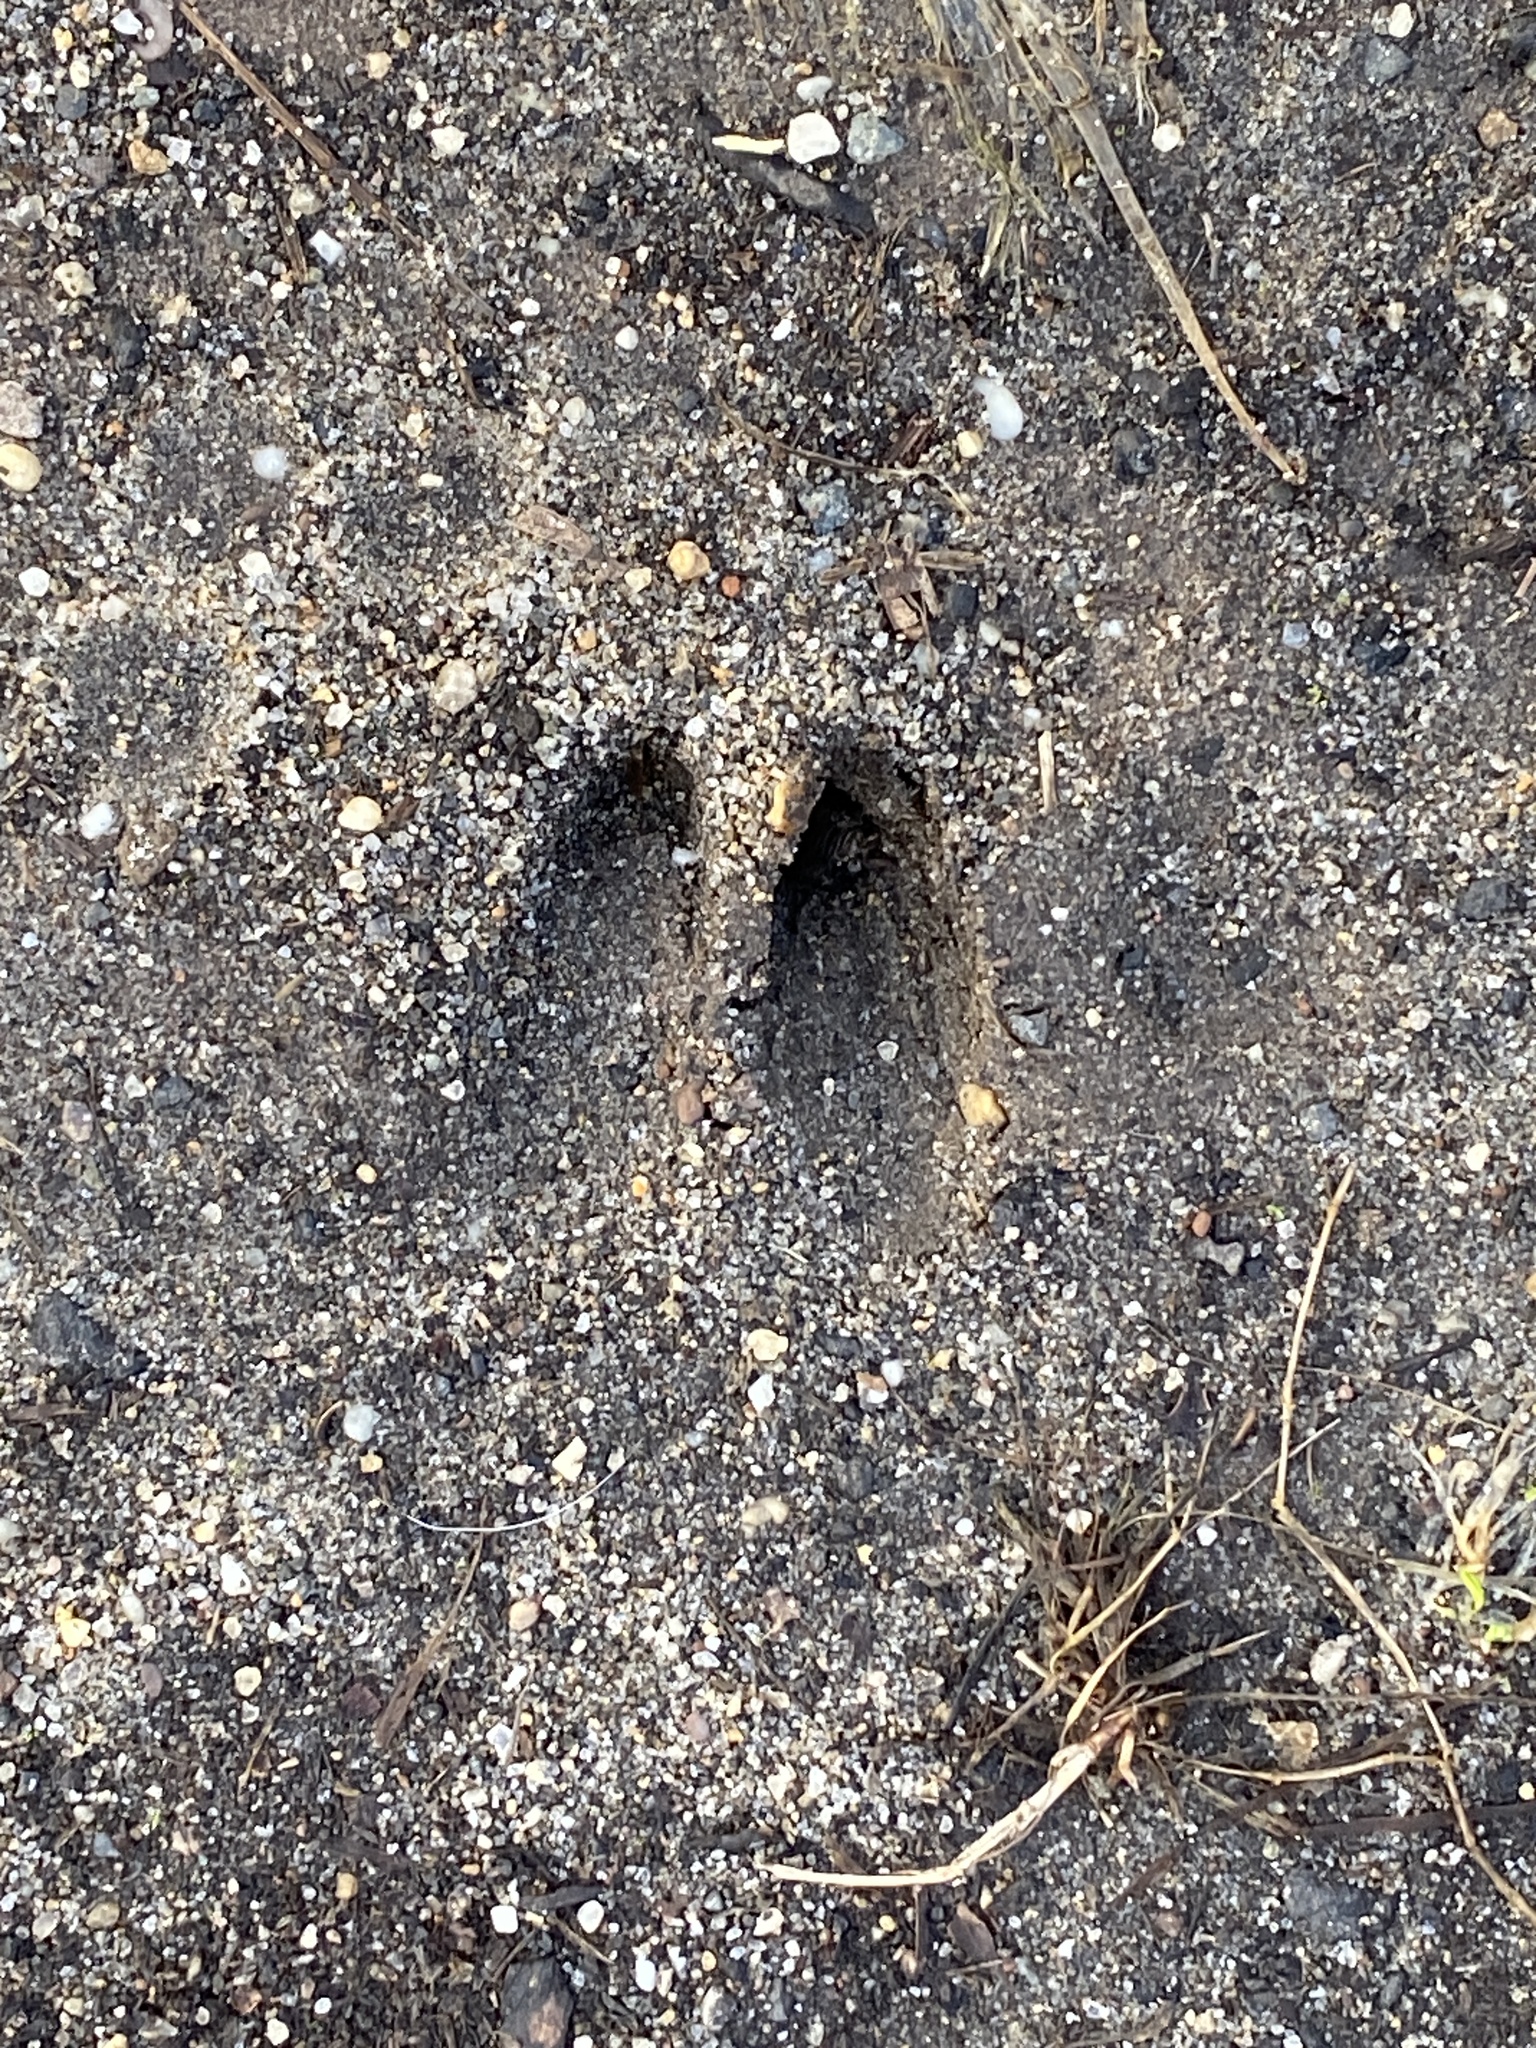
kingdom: Animalia
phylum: Chordata
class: Mammalia
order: Artiodactyla
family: Cervidae
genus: Odocoileus
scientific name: Odocoileus virginianus
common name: White-tailed deer
